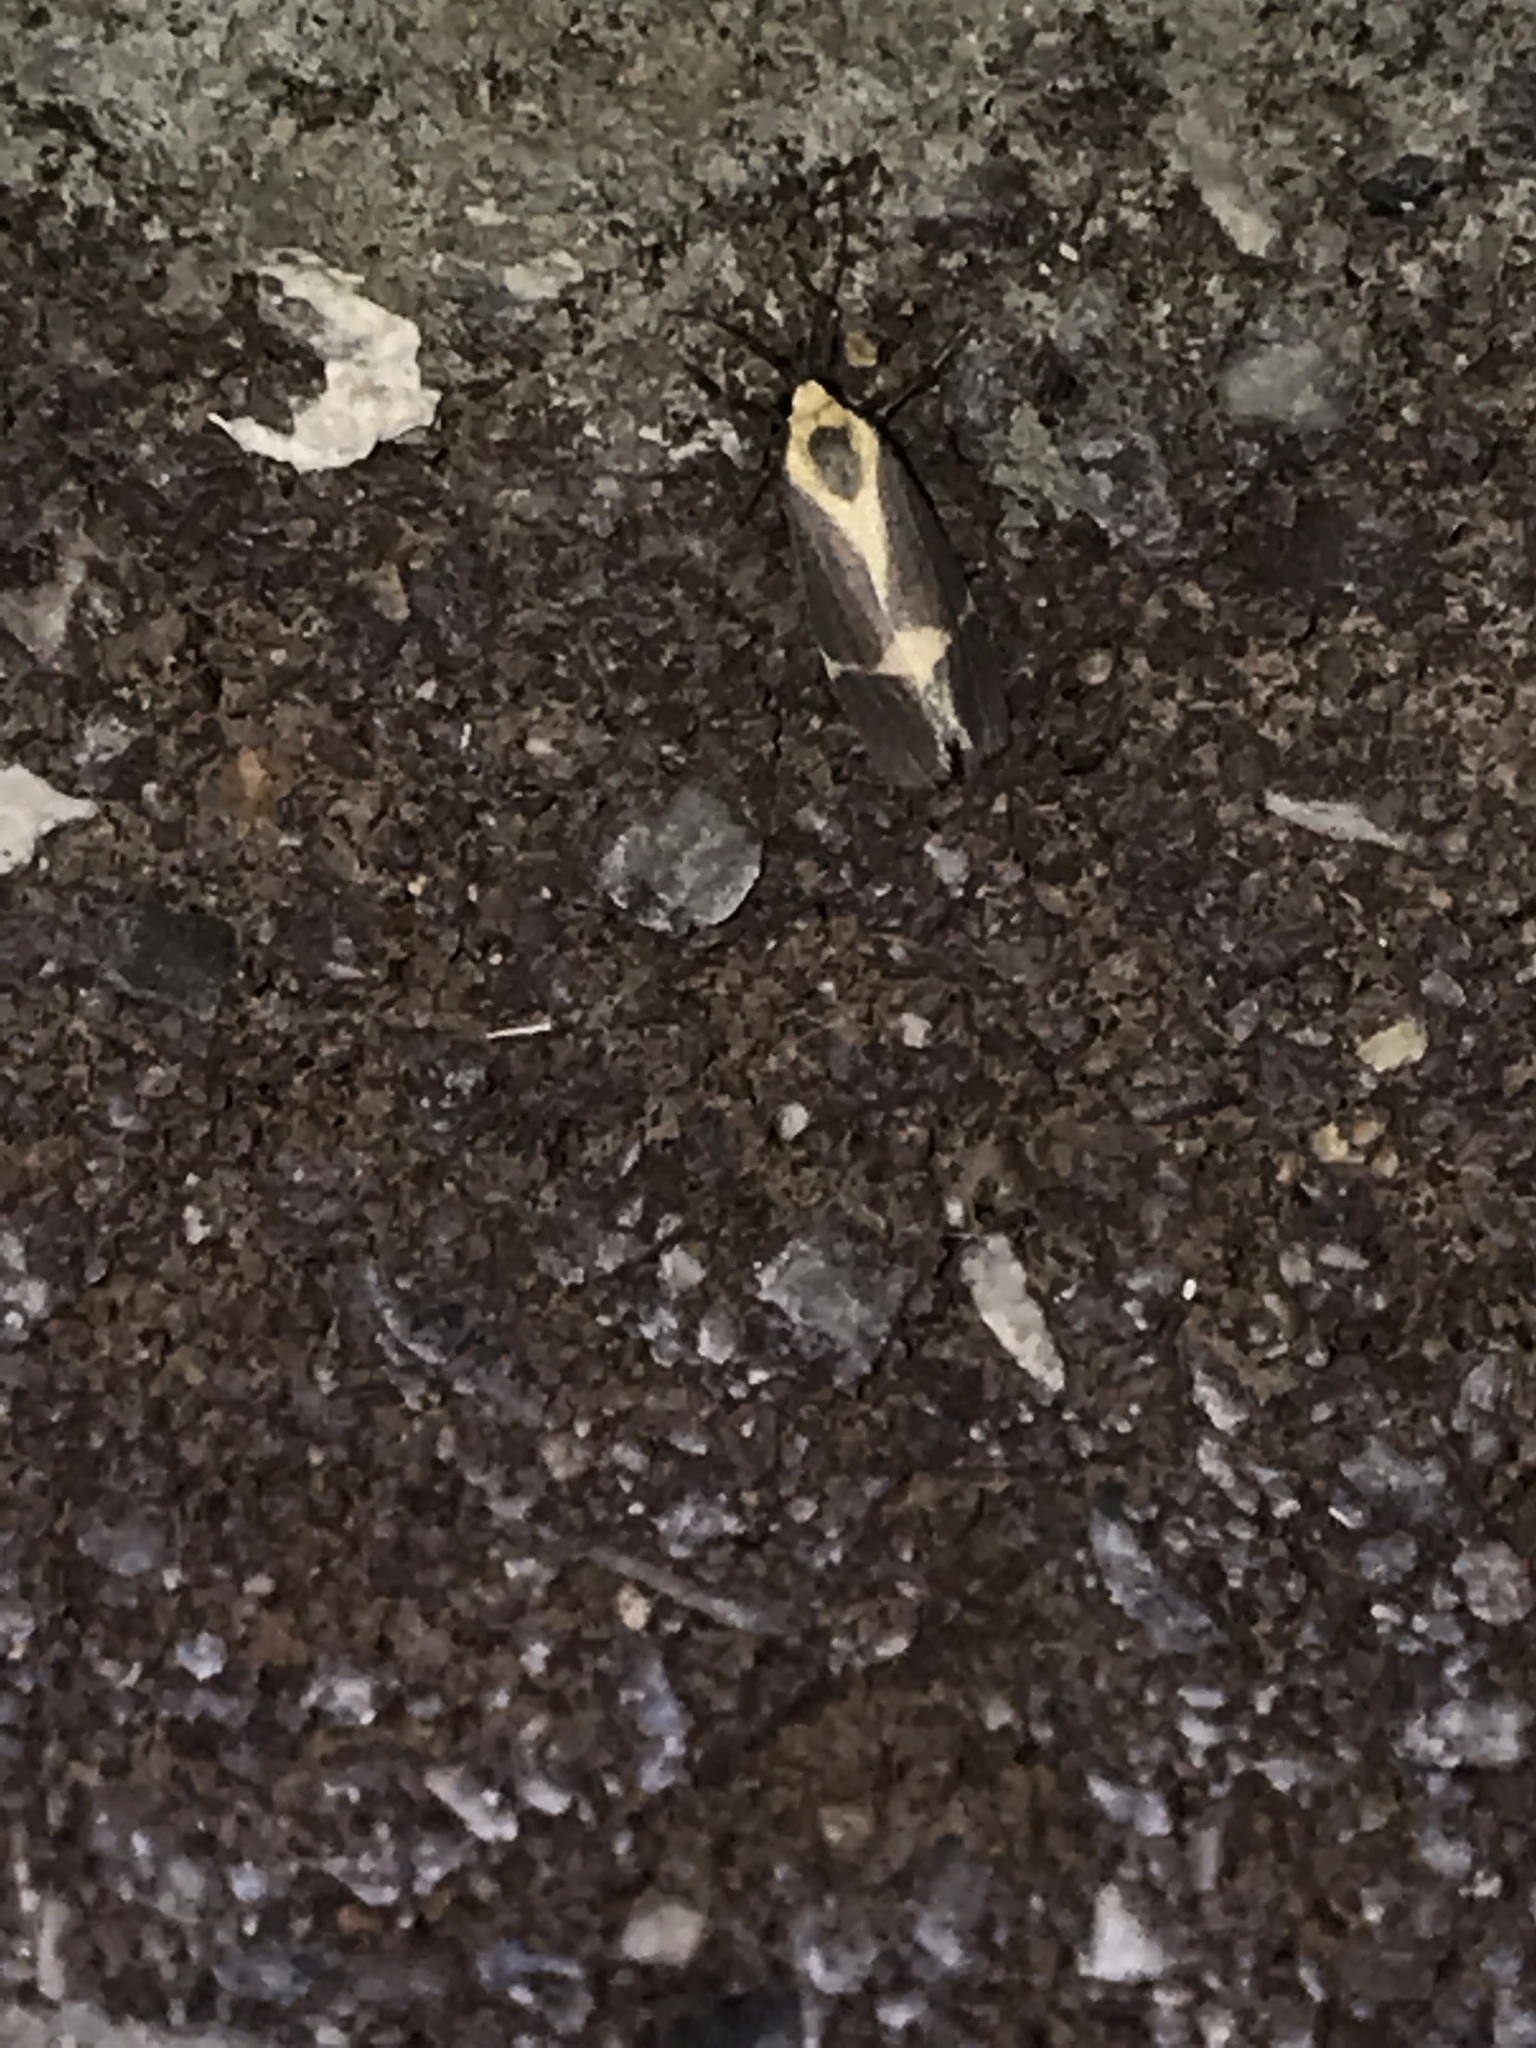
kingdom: Animalia
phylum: Arthropoda
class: Insecta
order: Lepidoptera
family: Erebidae
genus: Cisthene
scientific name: Cisthene tenuifascia
